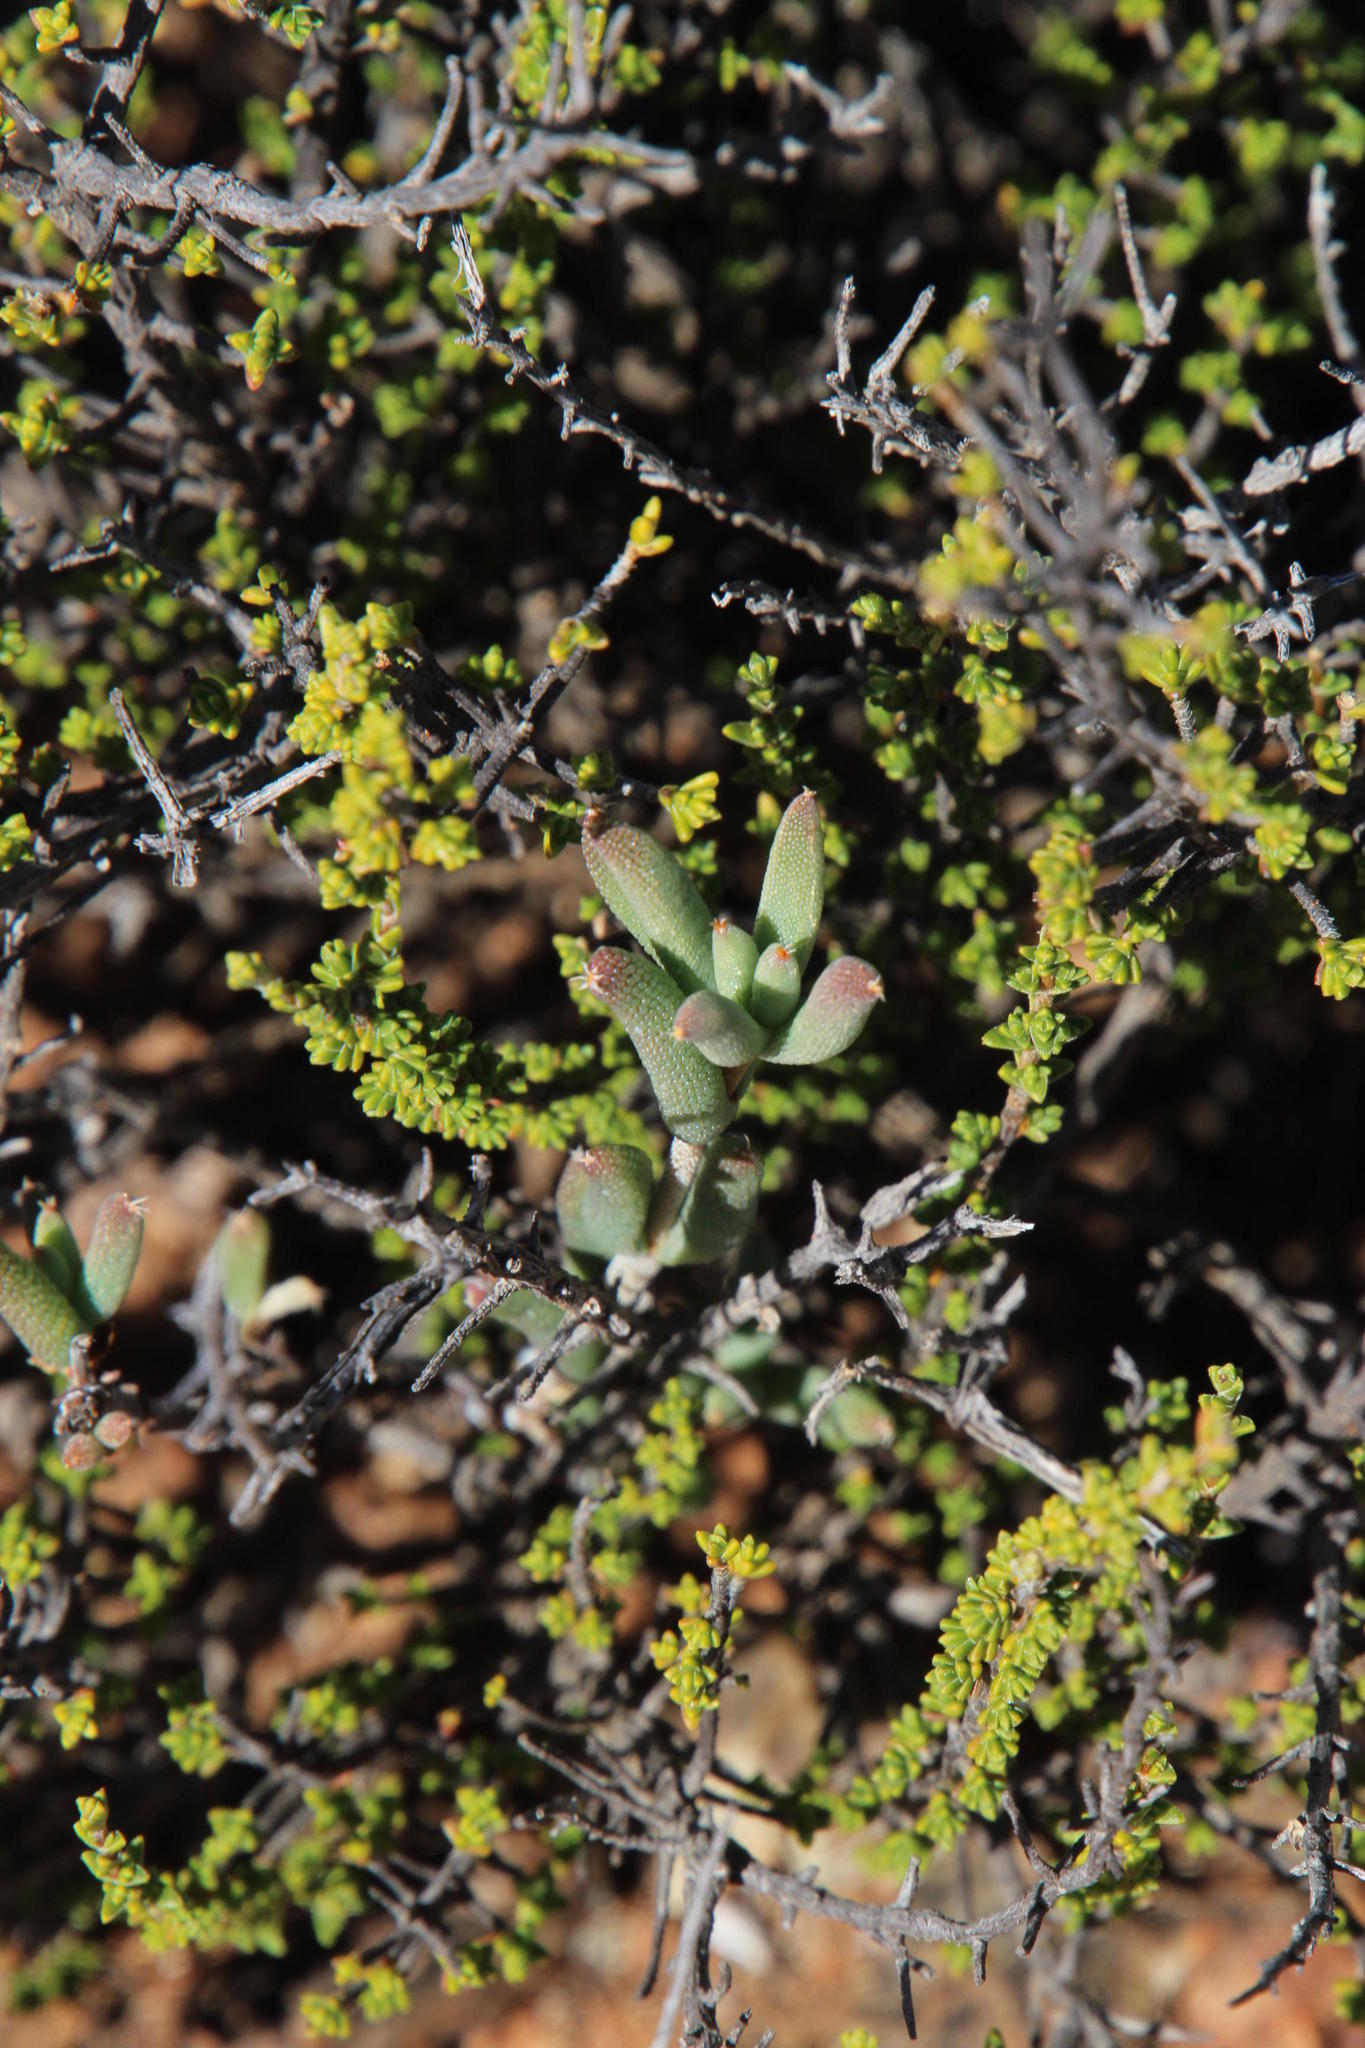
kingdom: Plantae
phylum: Tracheophyta
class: Magnoliopsida
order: Caryophyllales
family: Aizoaceae
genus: Trichodiadema
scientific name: Trichodiadema rogersiae
